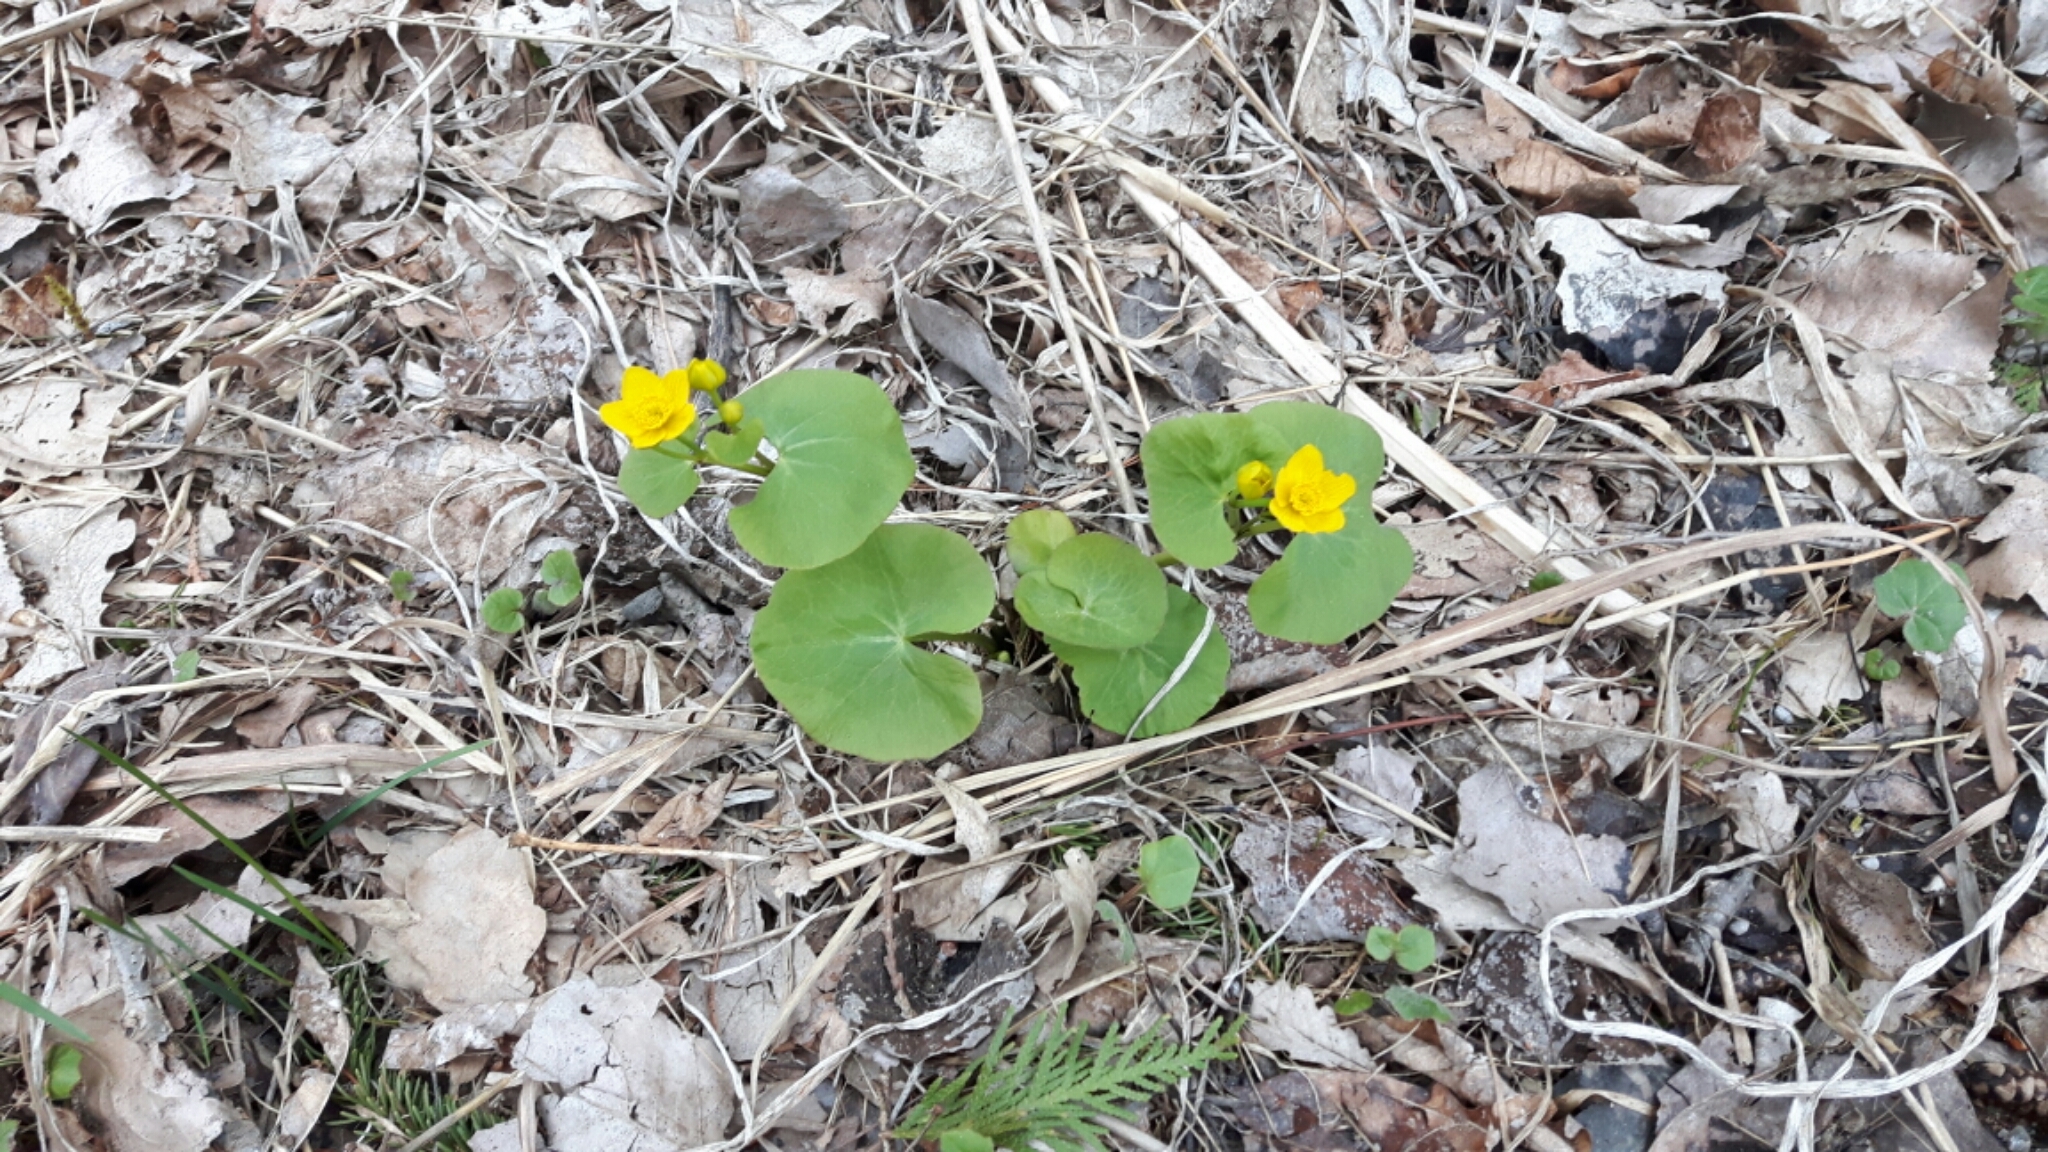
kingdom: Plantae
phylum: Tracheophyta
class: Magnoliopsida
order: Ranunculales
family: Ranunculaceae
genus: Caltha
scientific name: Caltha palustris
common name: Marsh marigold
